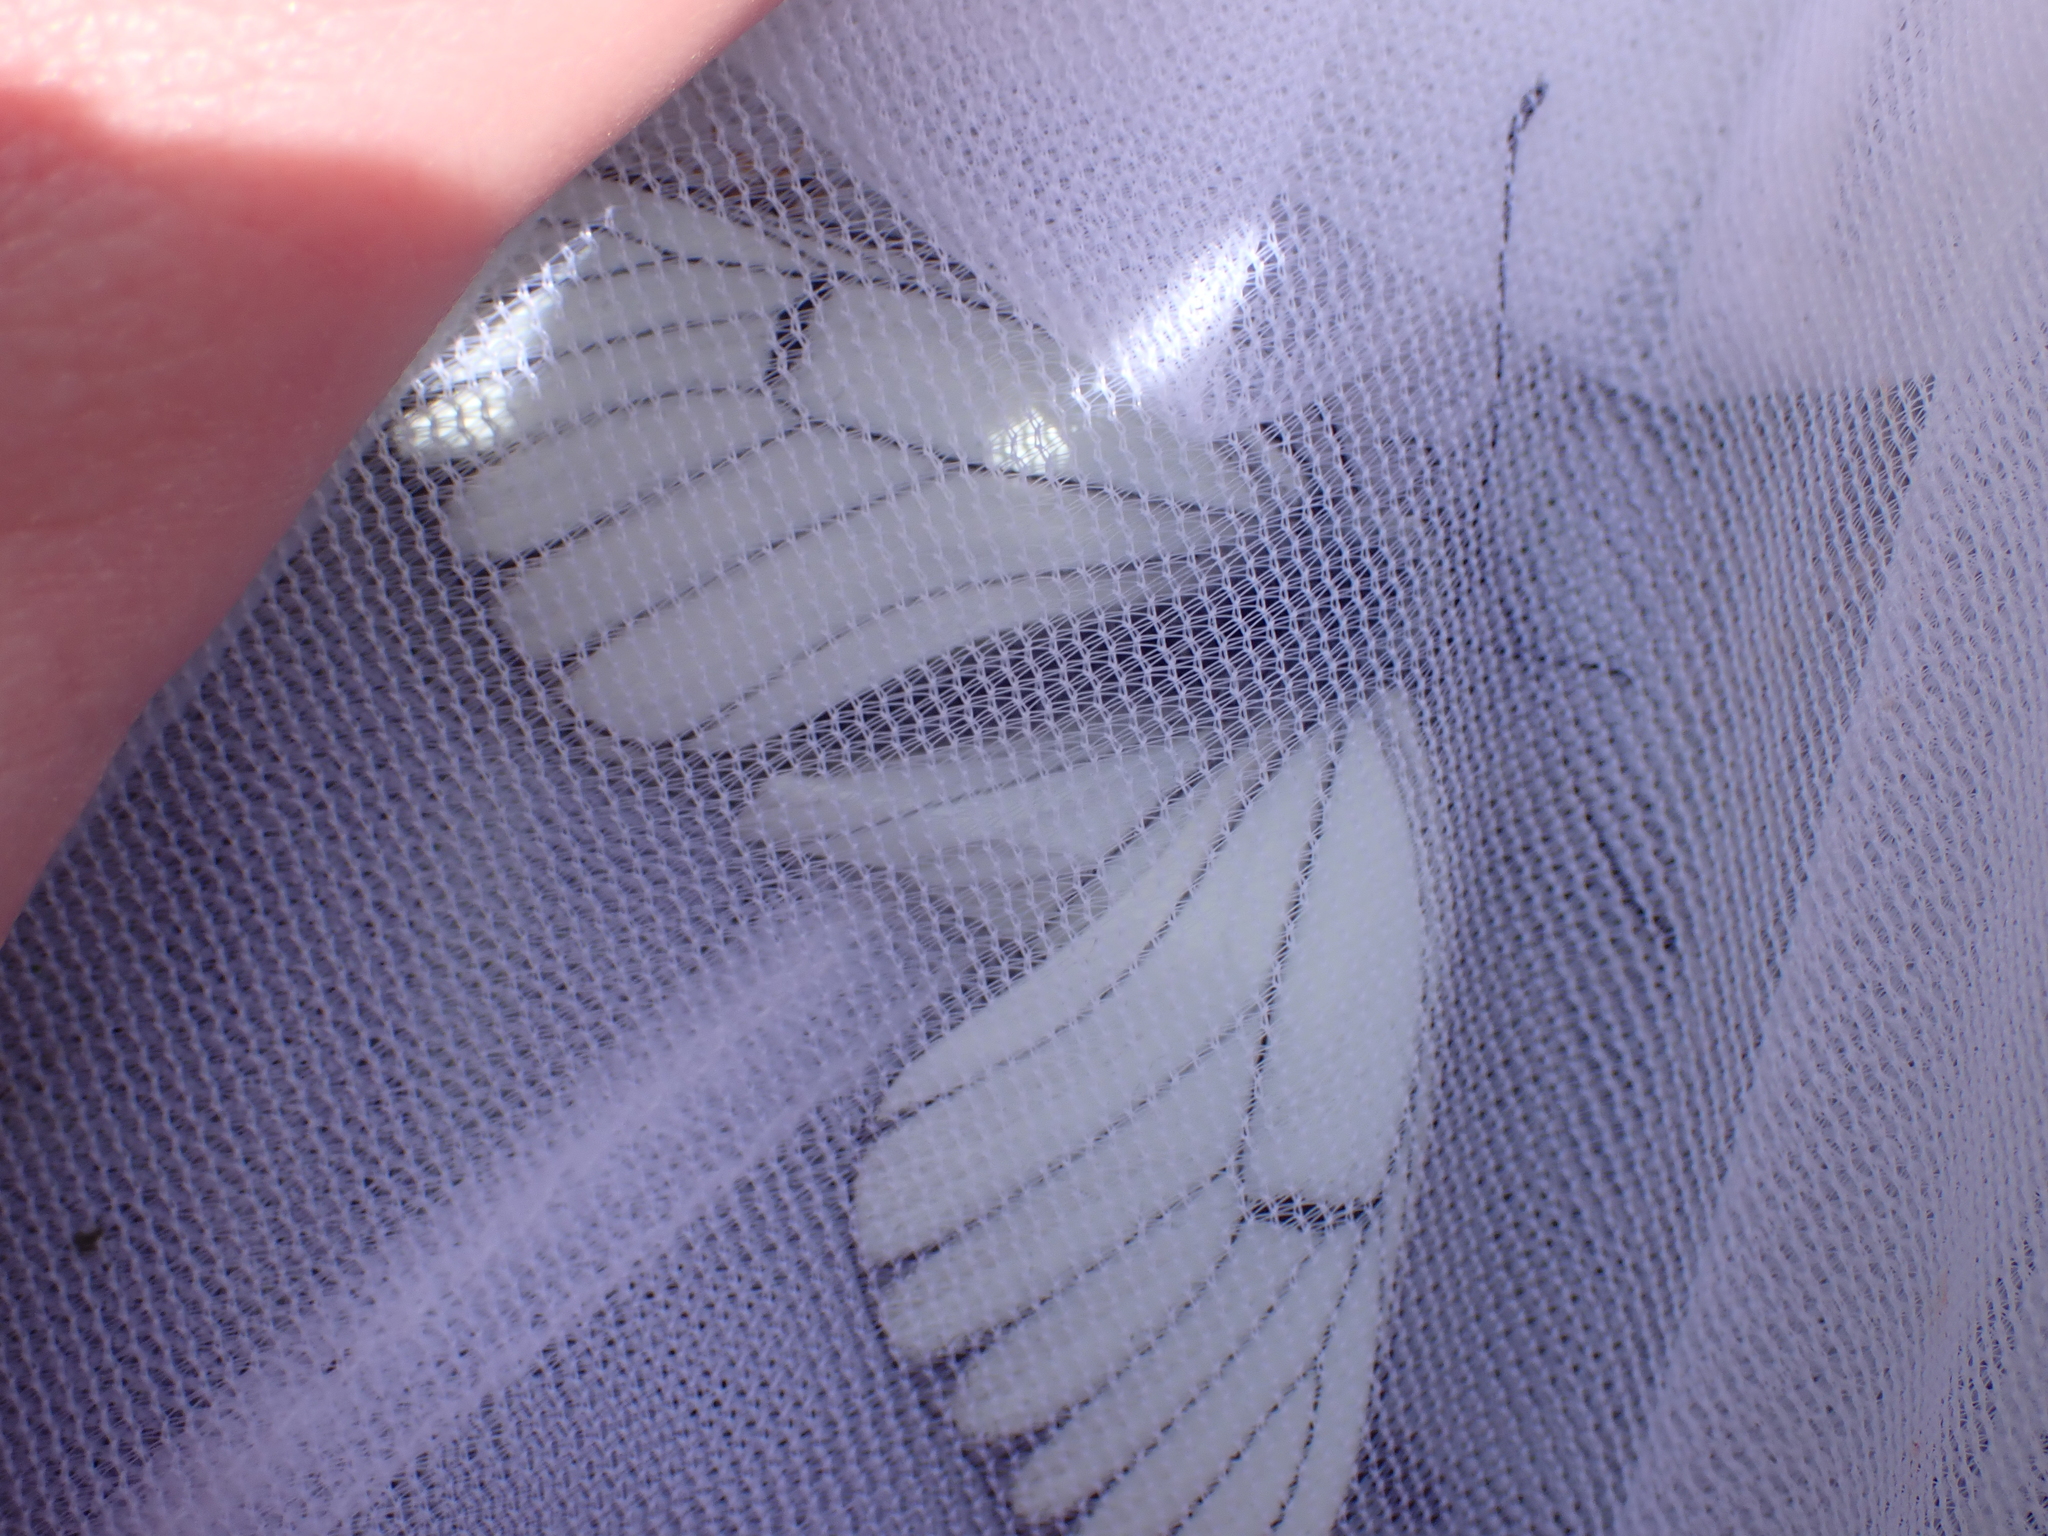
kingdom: Animalia
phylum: Arthropoda
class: Insecta
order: Lepidoptera
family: Pieridae
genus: Aporia
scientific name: Aporia crataegi
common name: Black-veined white
